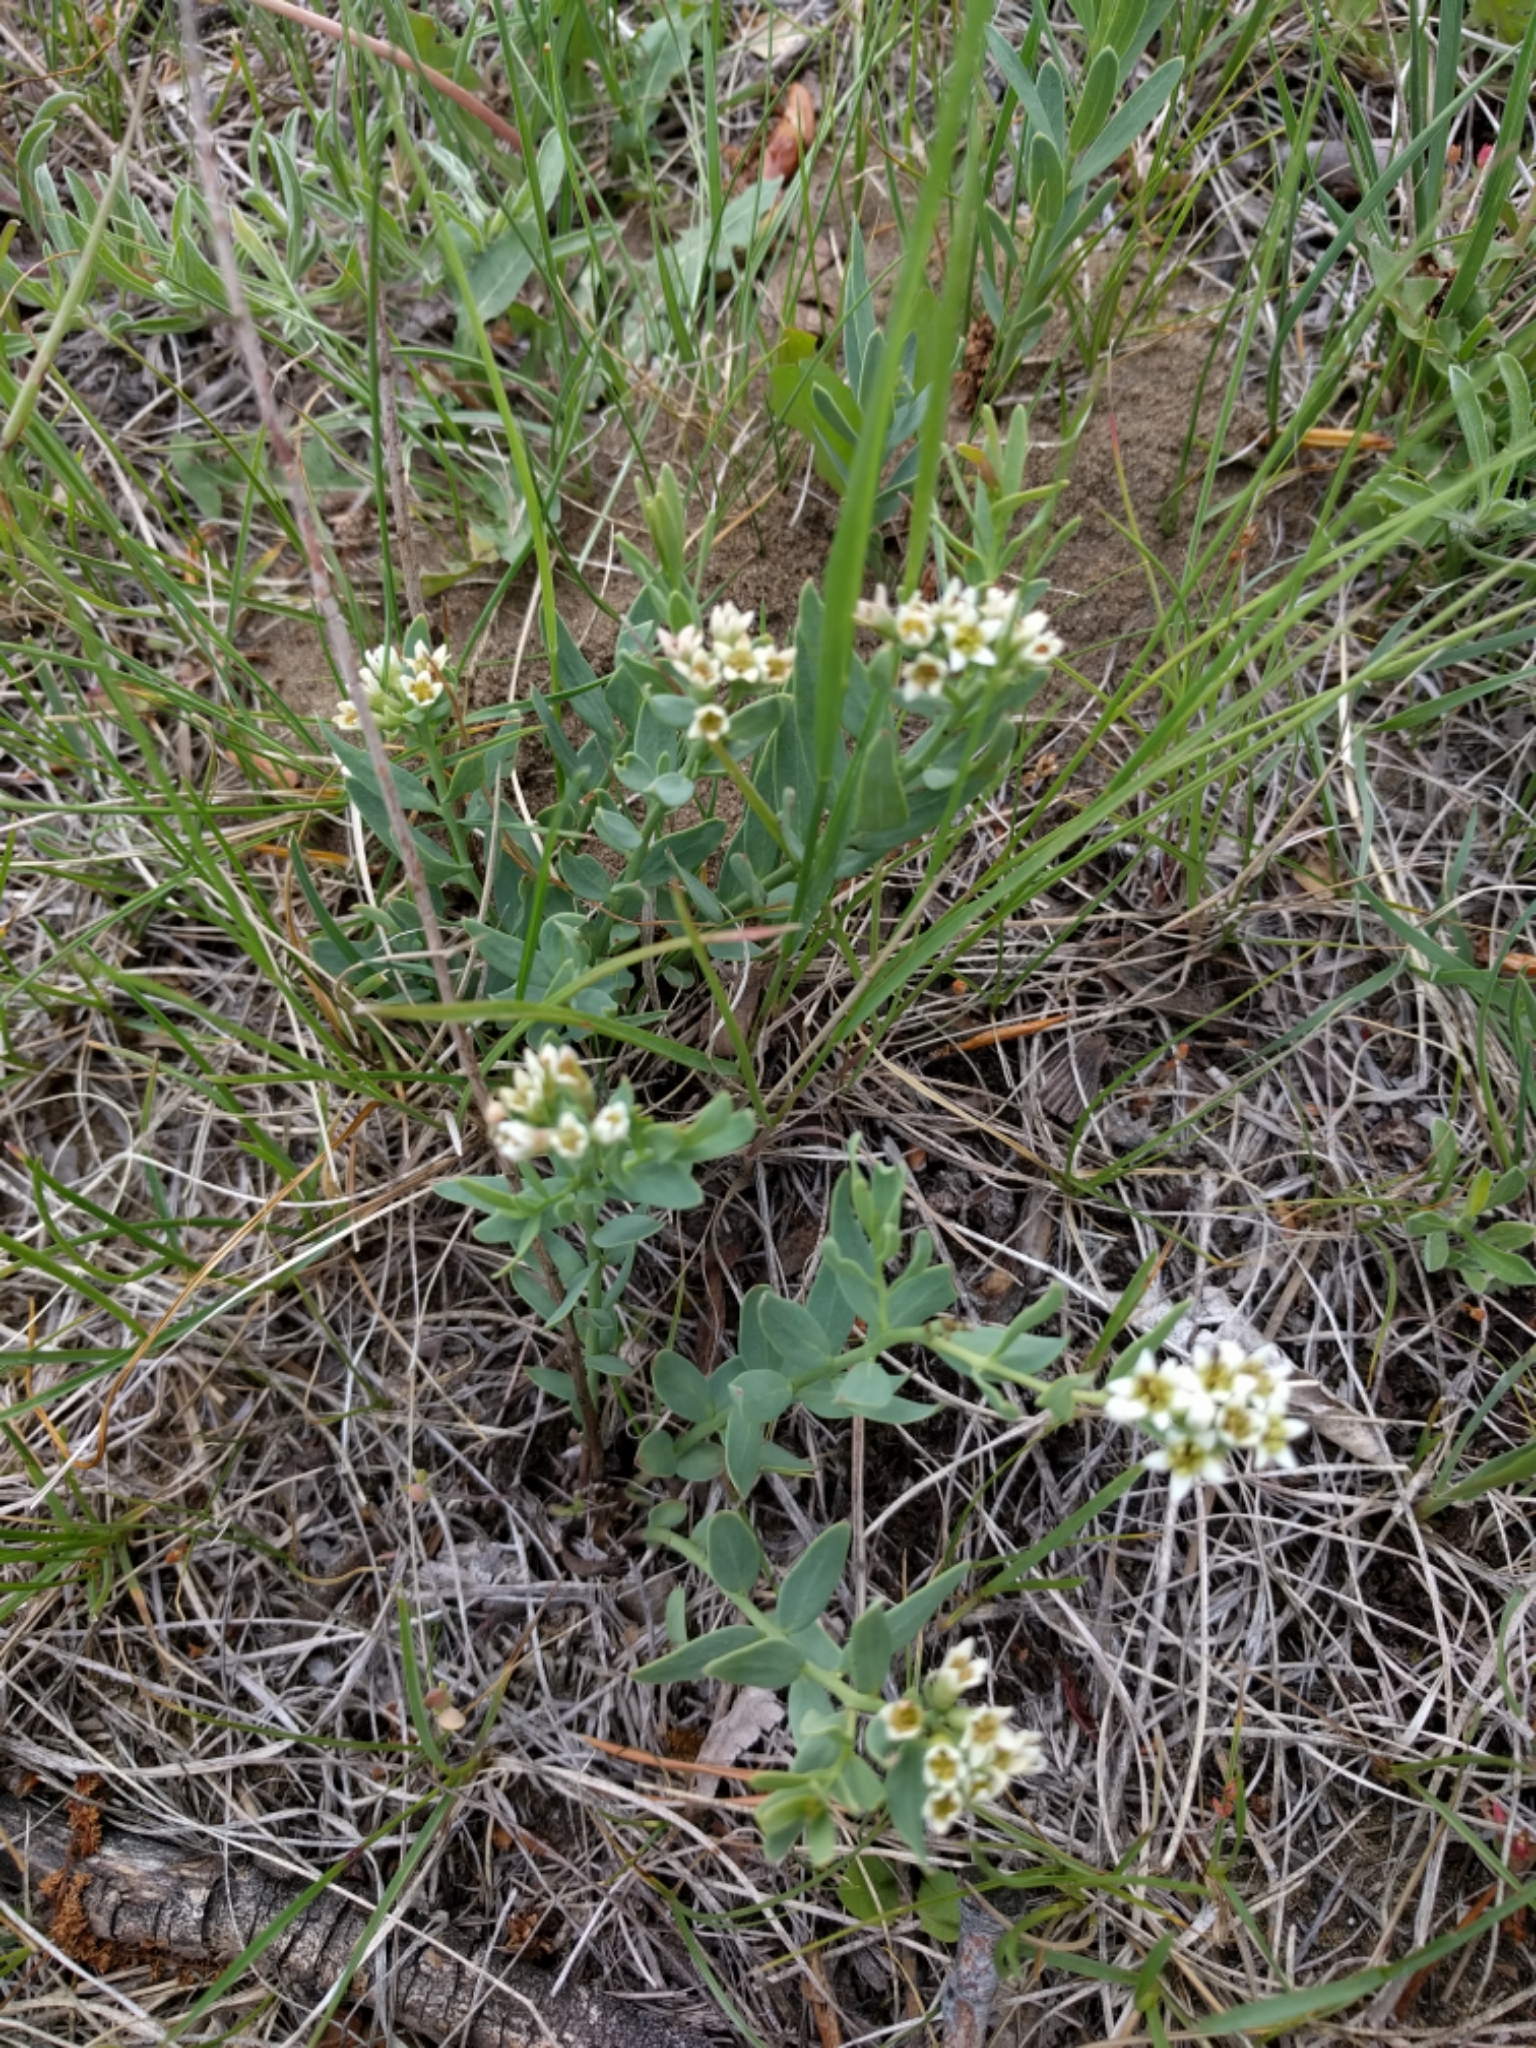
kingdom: Plantae
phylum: Tracheophyta
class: Magnoliopsida
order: Santalales
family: Comandraceae
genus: Comandra
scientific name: Comandra umbellata
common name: Bastard toadflax
